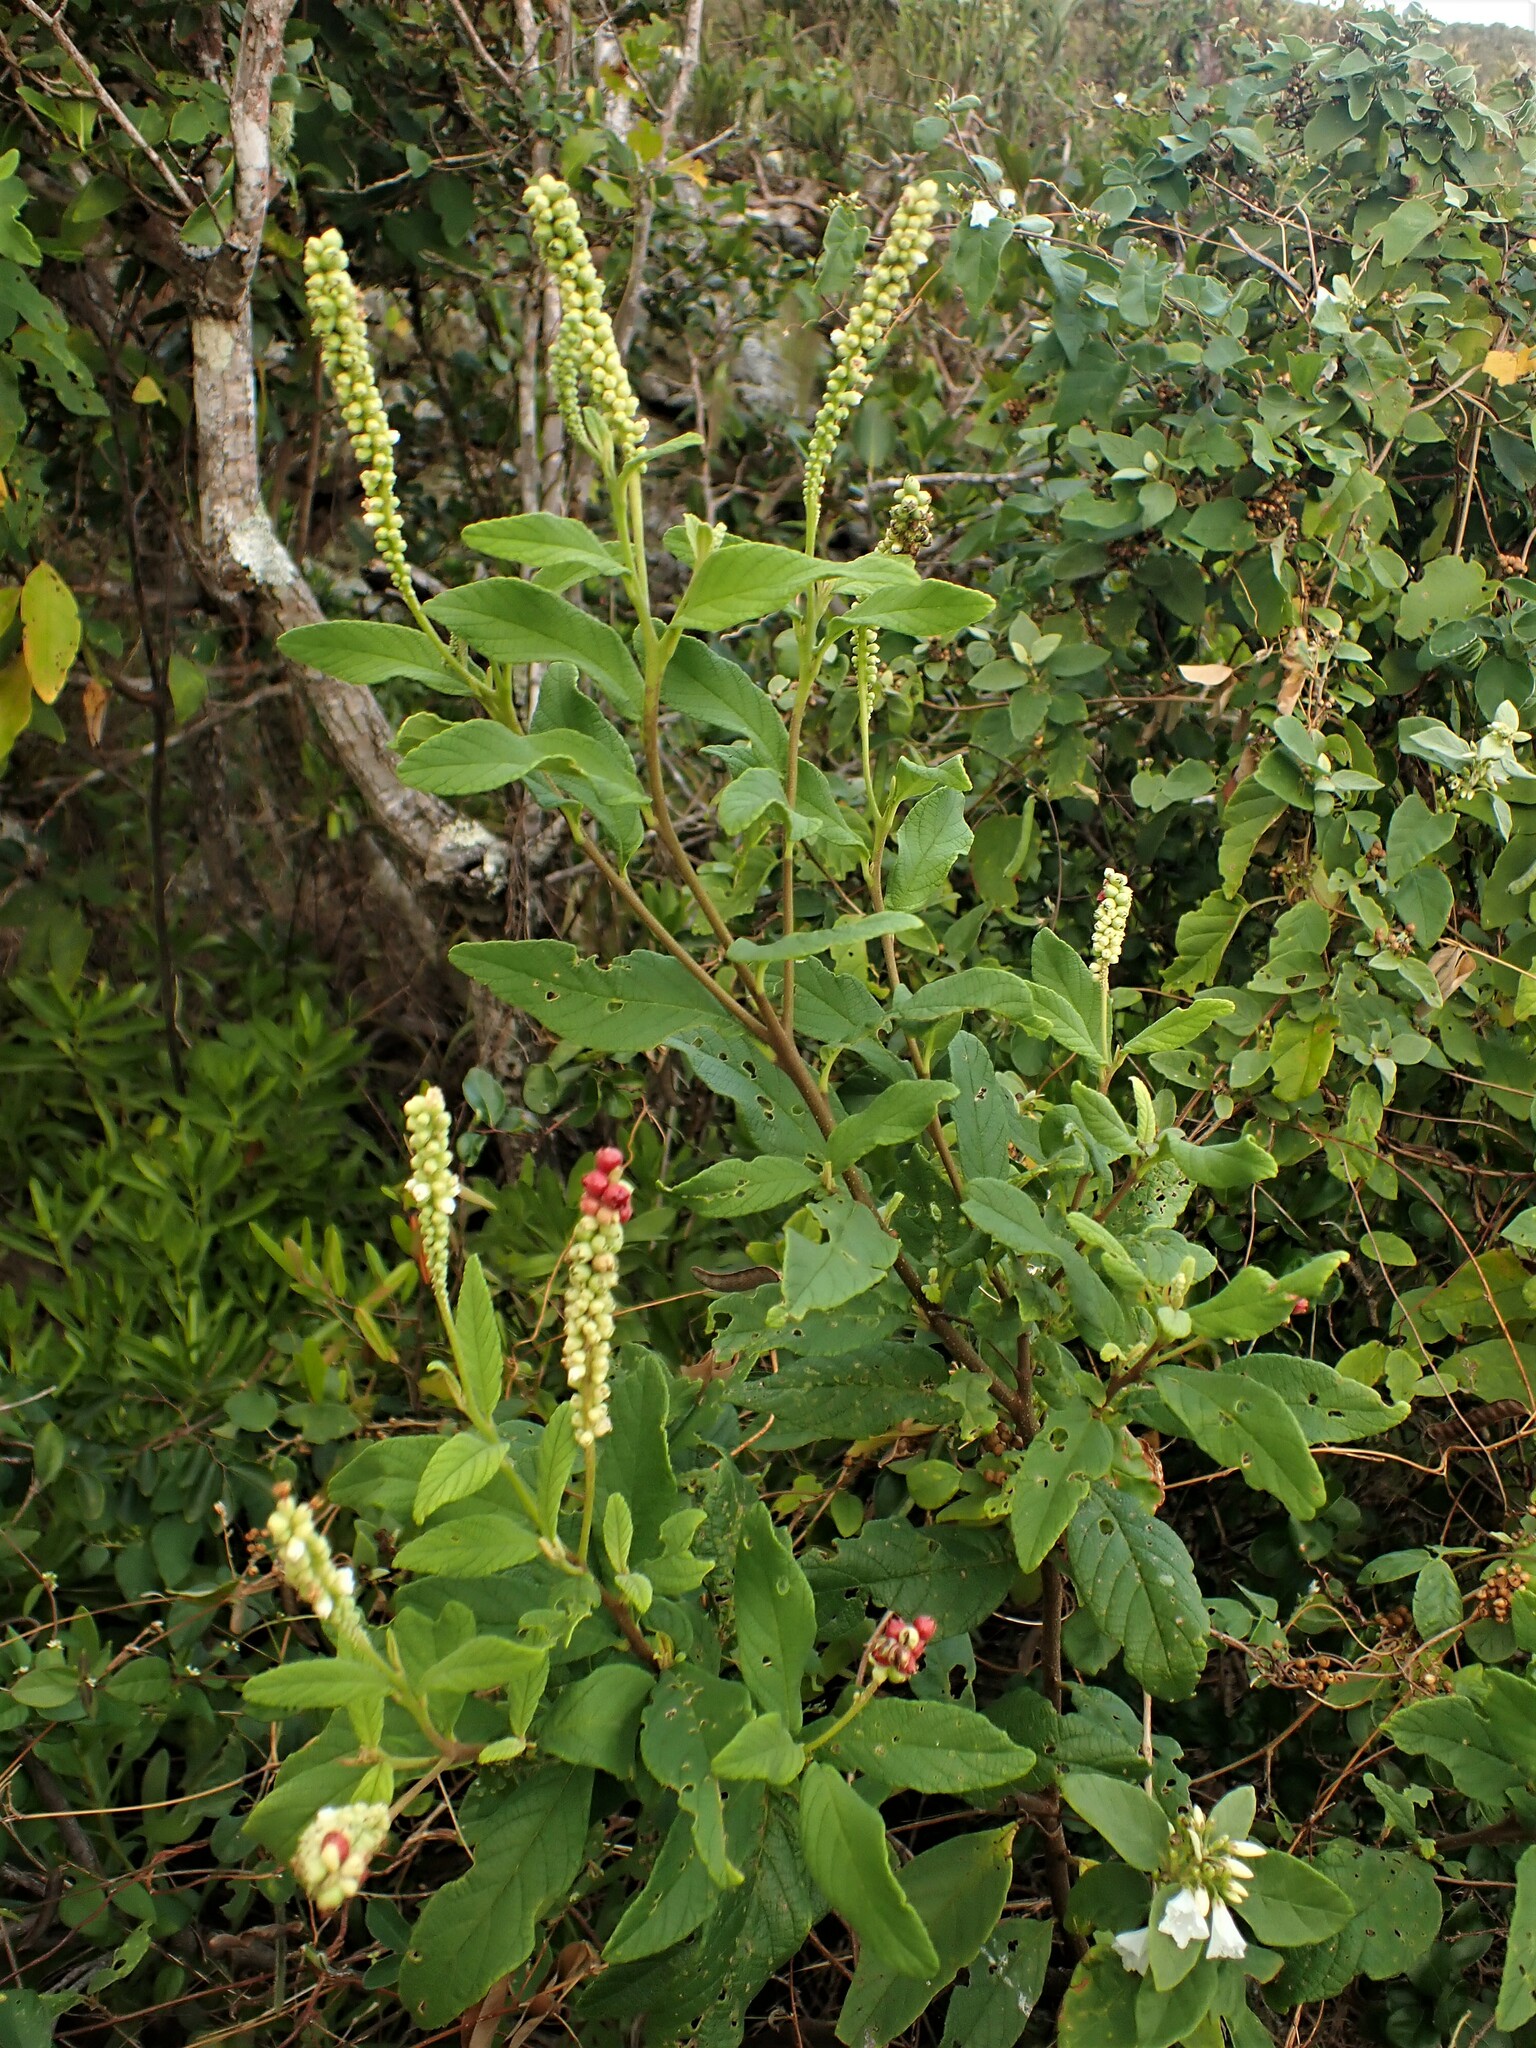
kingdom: Plantae
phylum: Tracheophyta
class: Magnoliopsida
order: Boraginales
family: Cordiaceae
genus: Varronia
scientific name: Varronia curassavica
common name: Black sage
